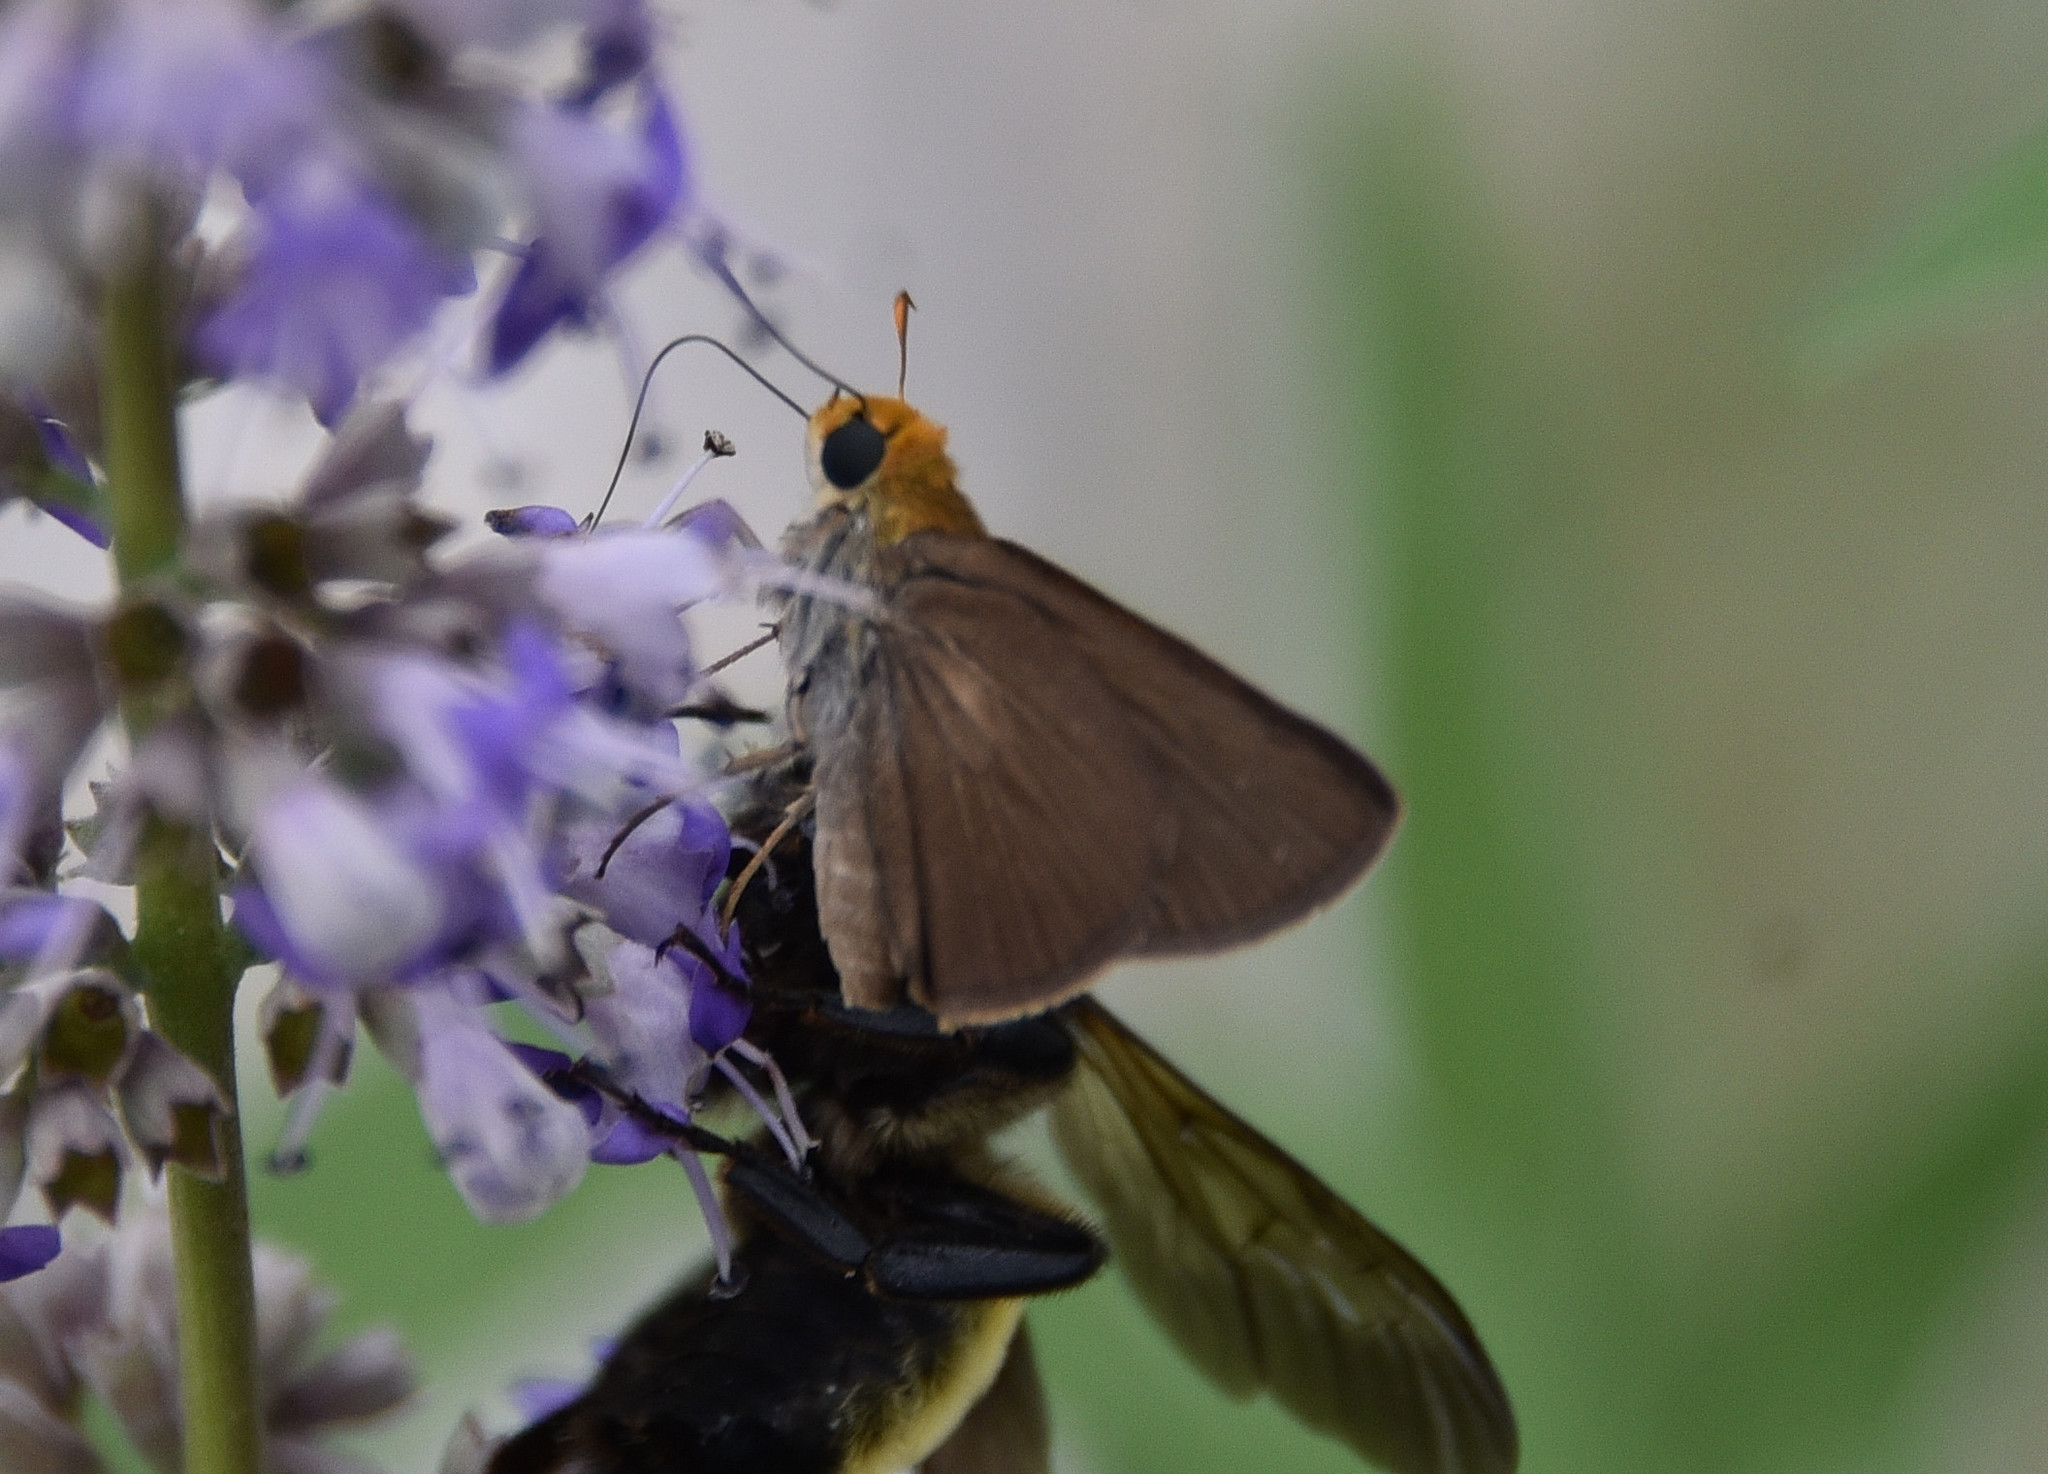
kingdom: Animalia
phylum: Arthropoda
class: Insecta
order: Lepidoptera
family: Hesperiidae
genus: Euphyes
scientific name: Euphyes vestris
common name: Dun skipper
